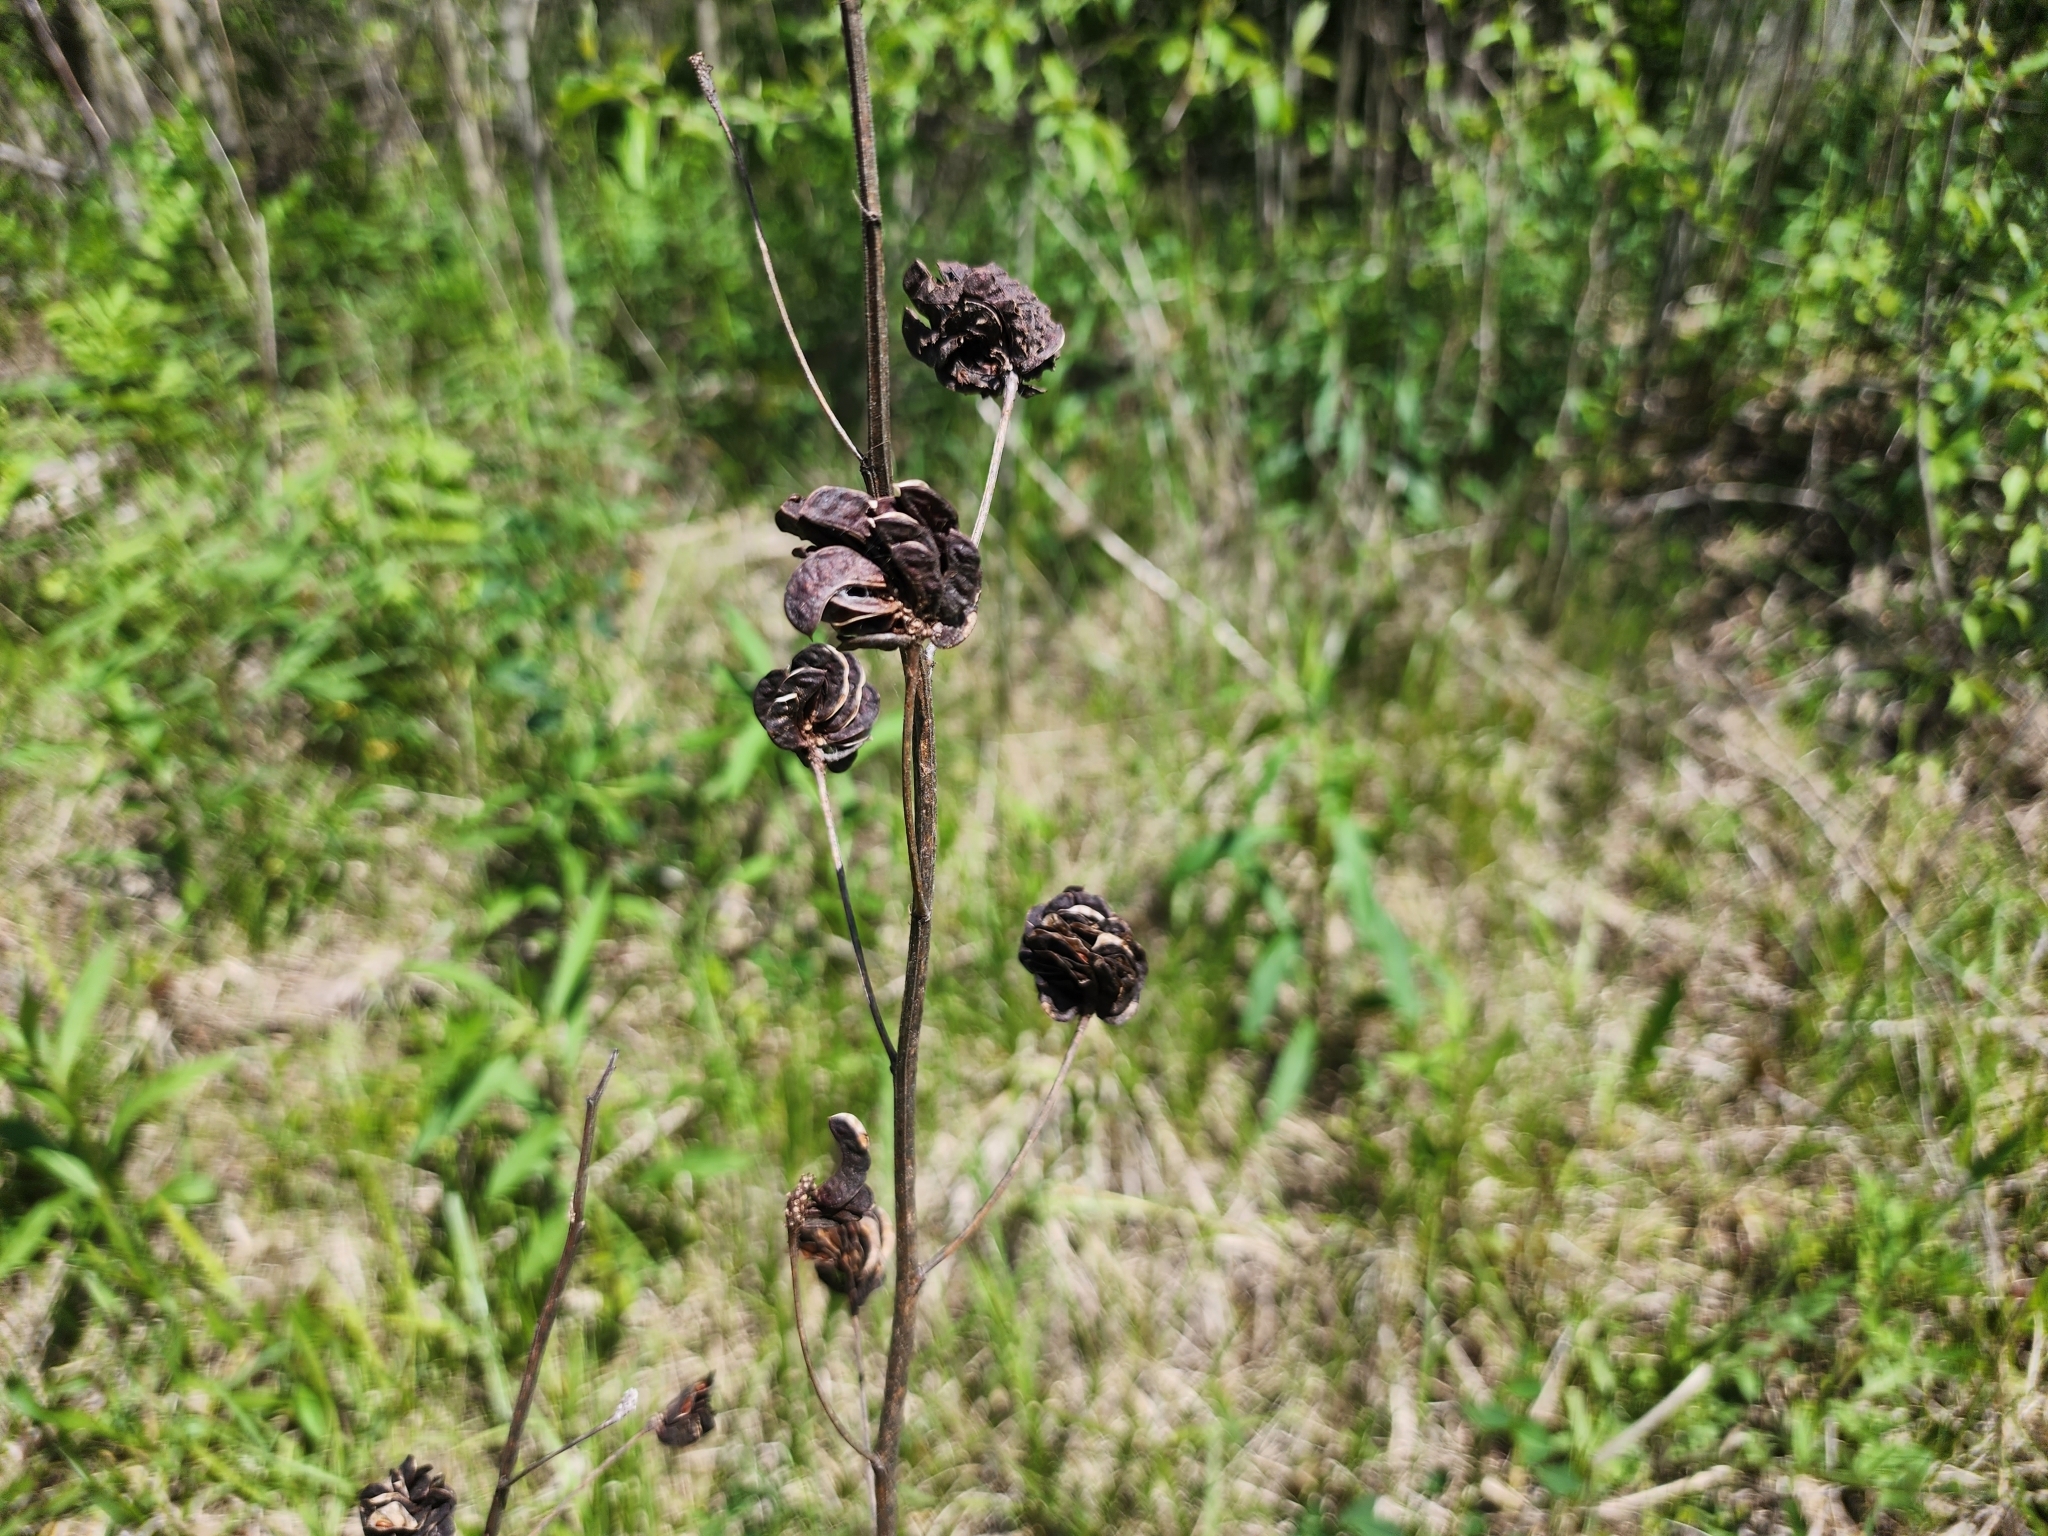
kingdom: Plantae
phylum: Tracheophyta
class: Magnoliopsida
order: Fabales
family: Fabaceae
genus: Desmanthus
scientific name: Desmanthus illinoensis
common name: Illinois bundle-flower
